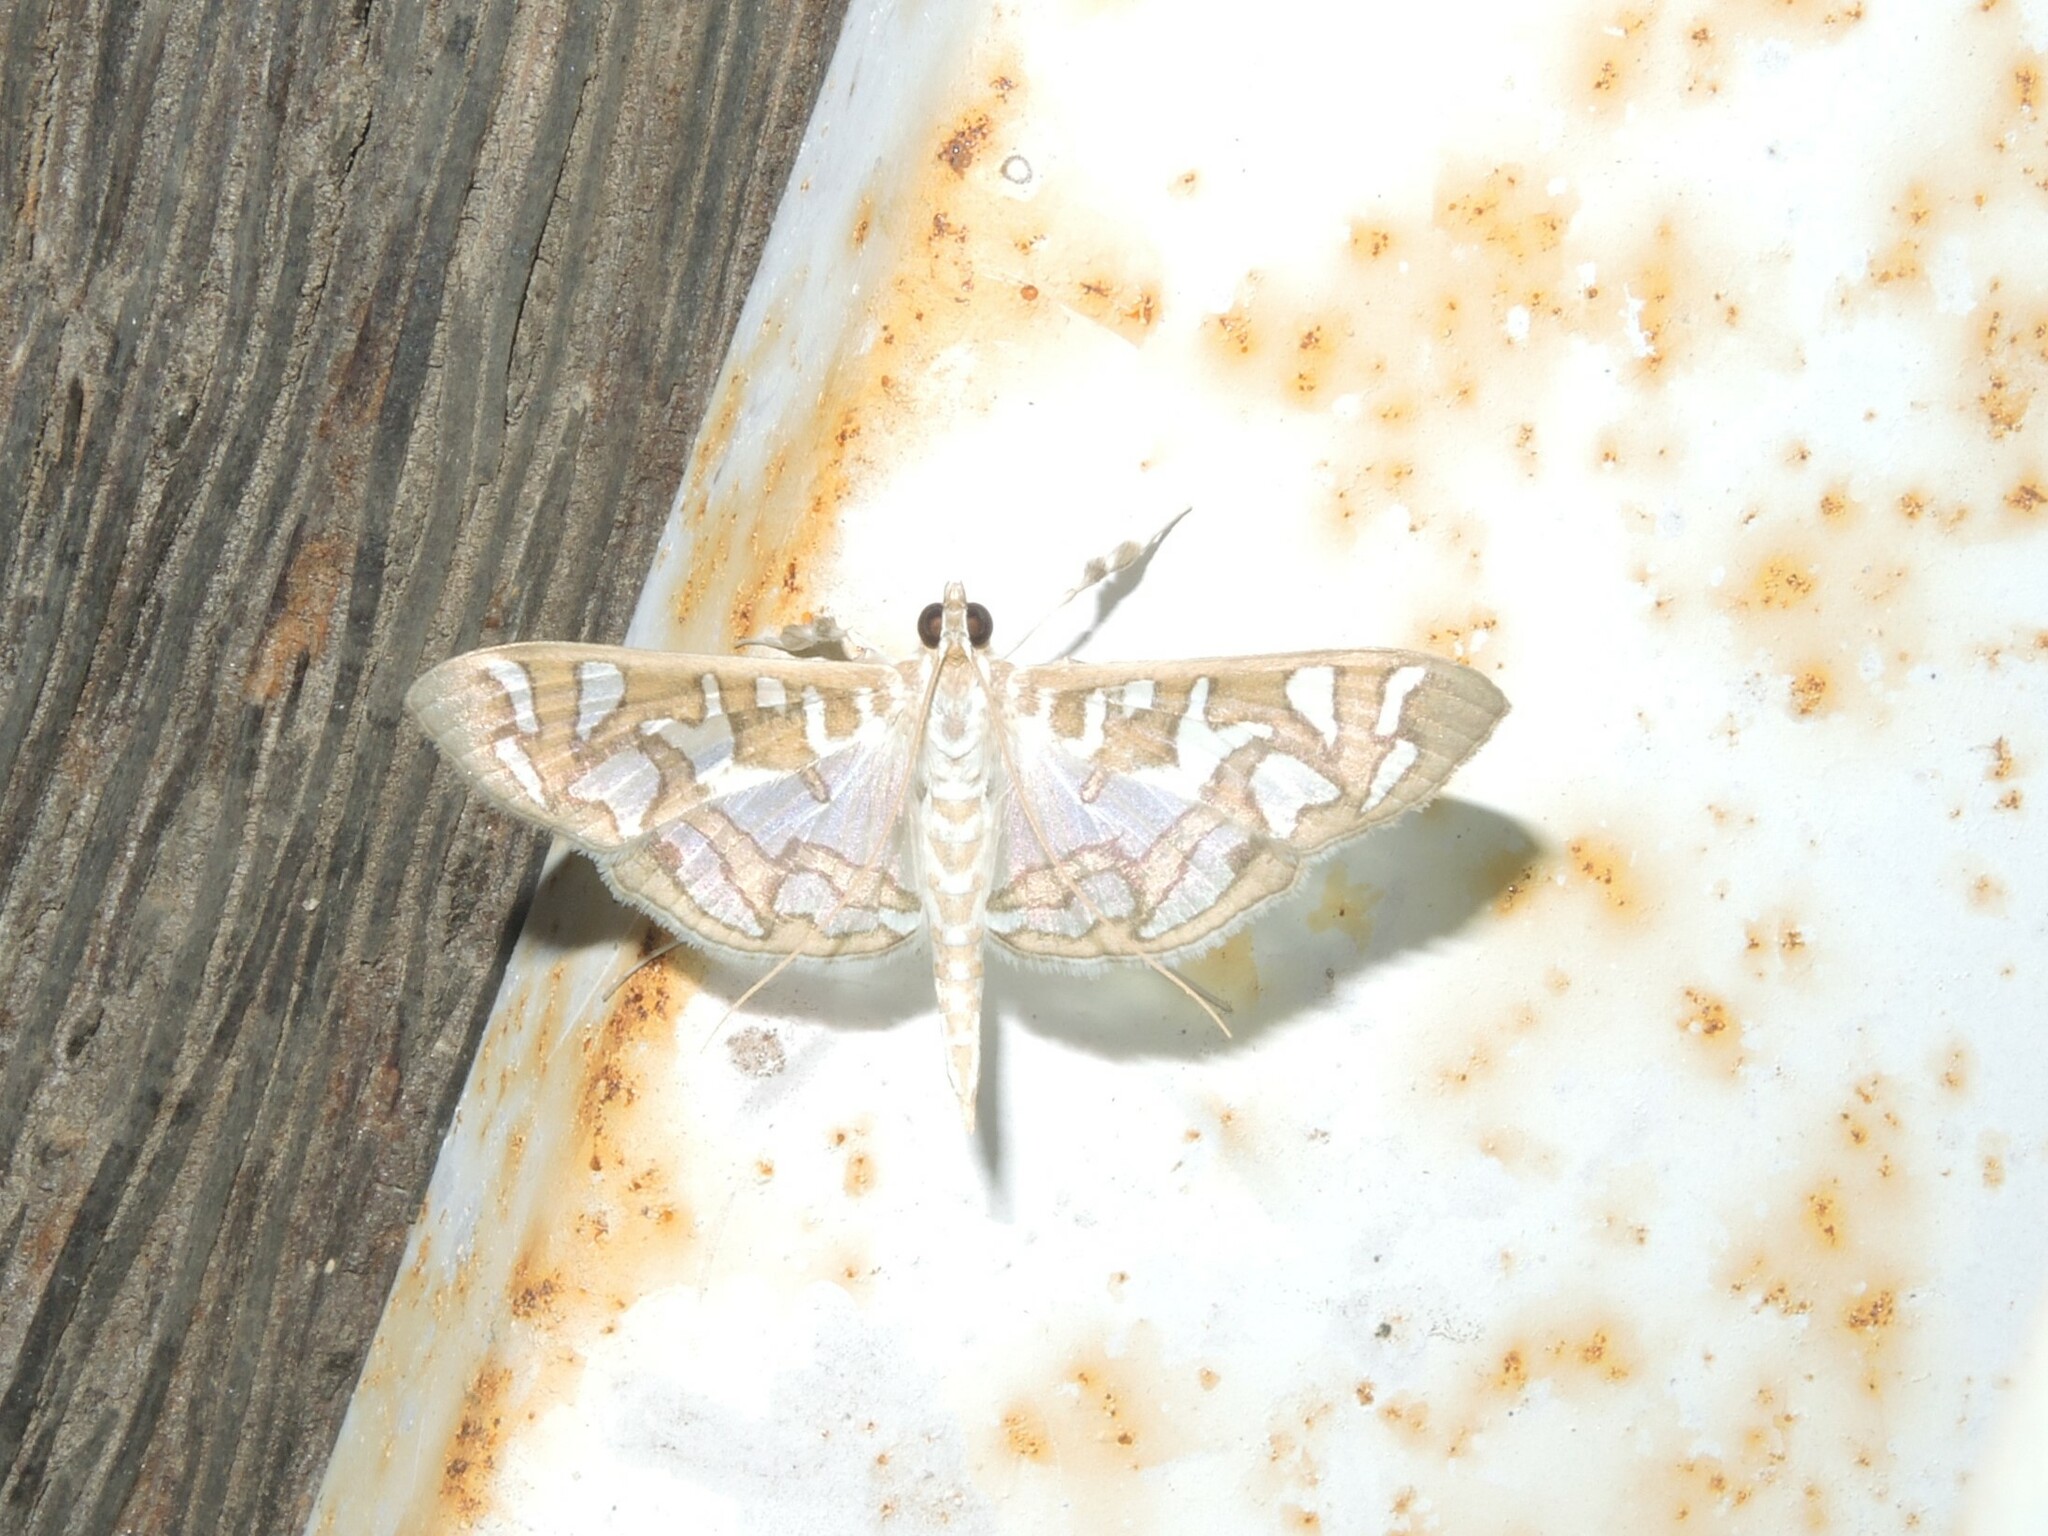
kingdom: Animalia
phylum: Arthropoda
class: Insecta
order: Lepidoptera
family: Crambidae
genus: Nausinoe
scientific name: Nausinoe perspectata
